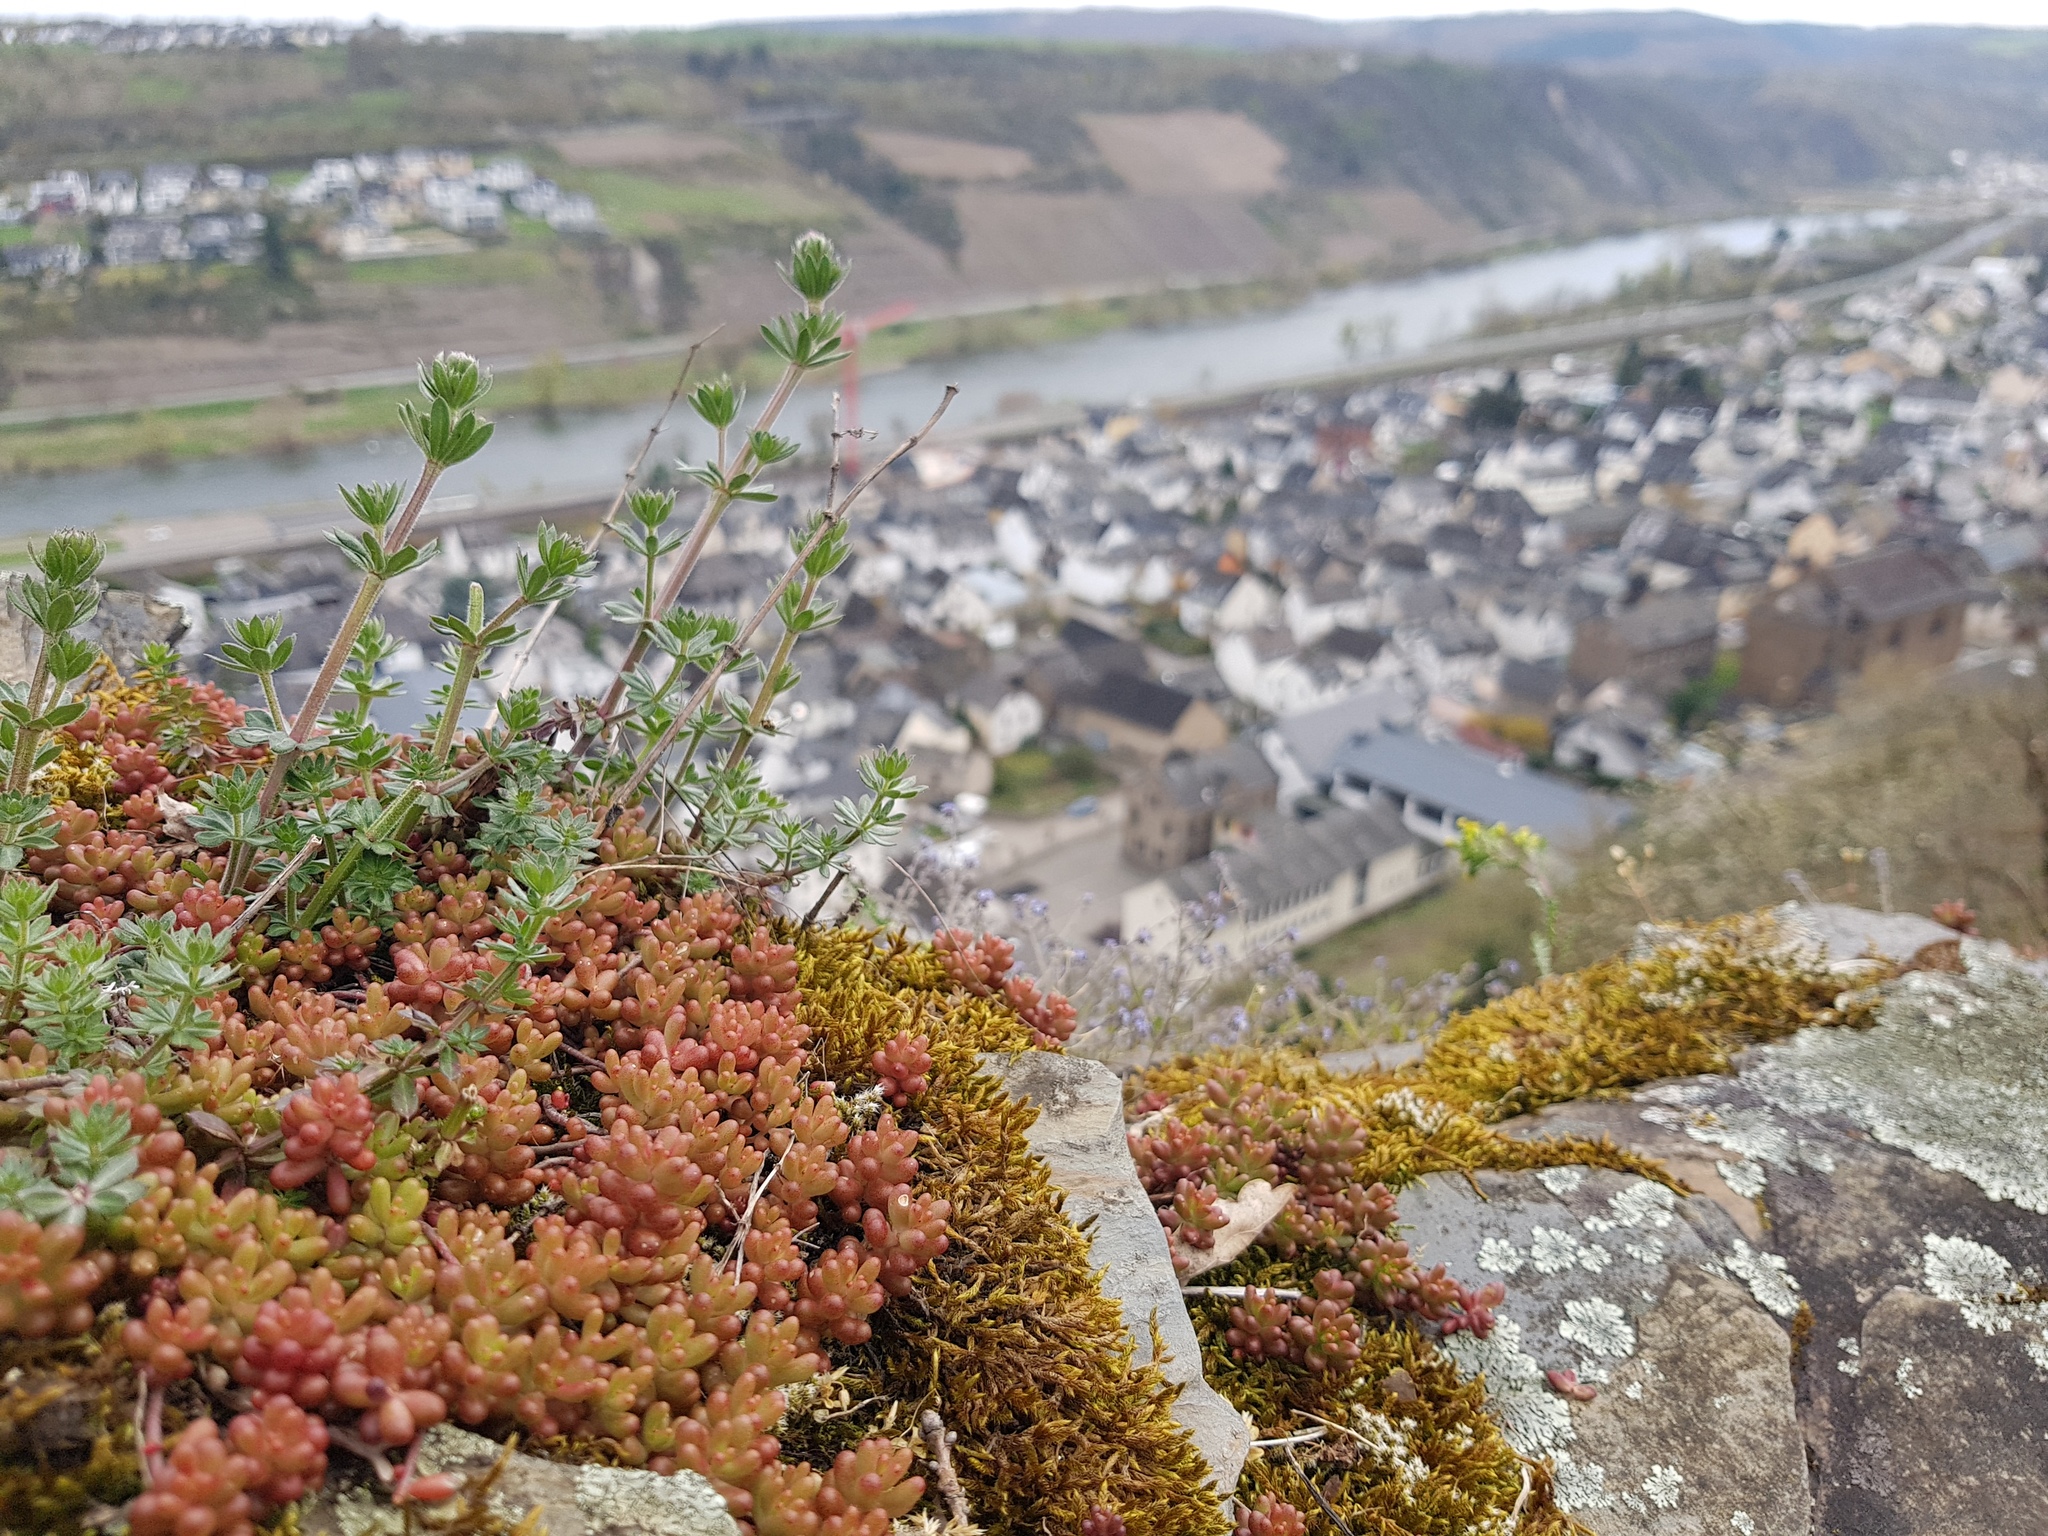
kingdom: Plantae
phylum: Tracheophyta
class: Magnoliopsida
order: Saxifragales
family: Crassulaceae
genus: Sedum
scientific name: Sedum album
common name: White stonecrop
